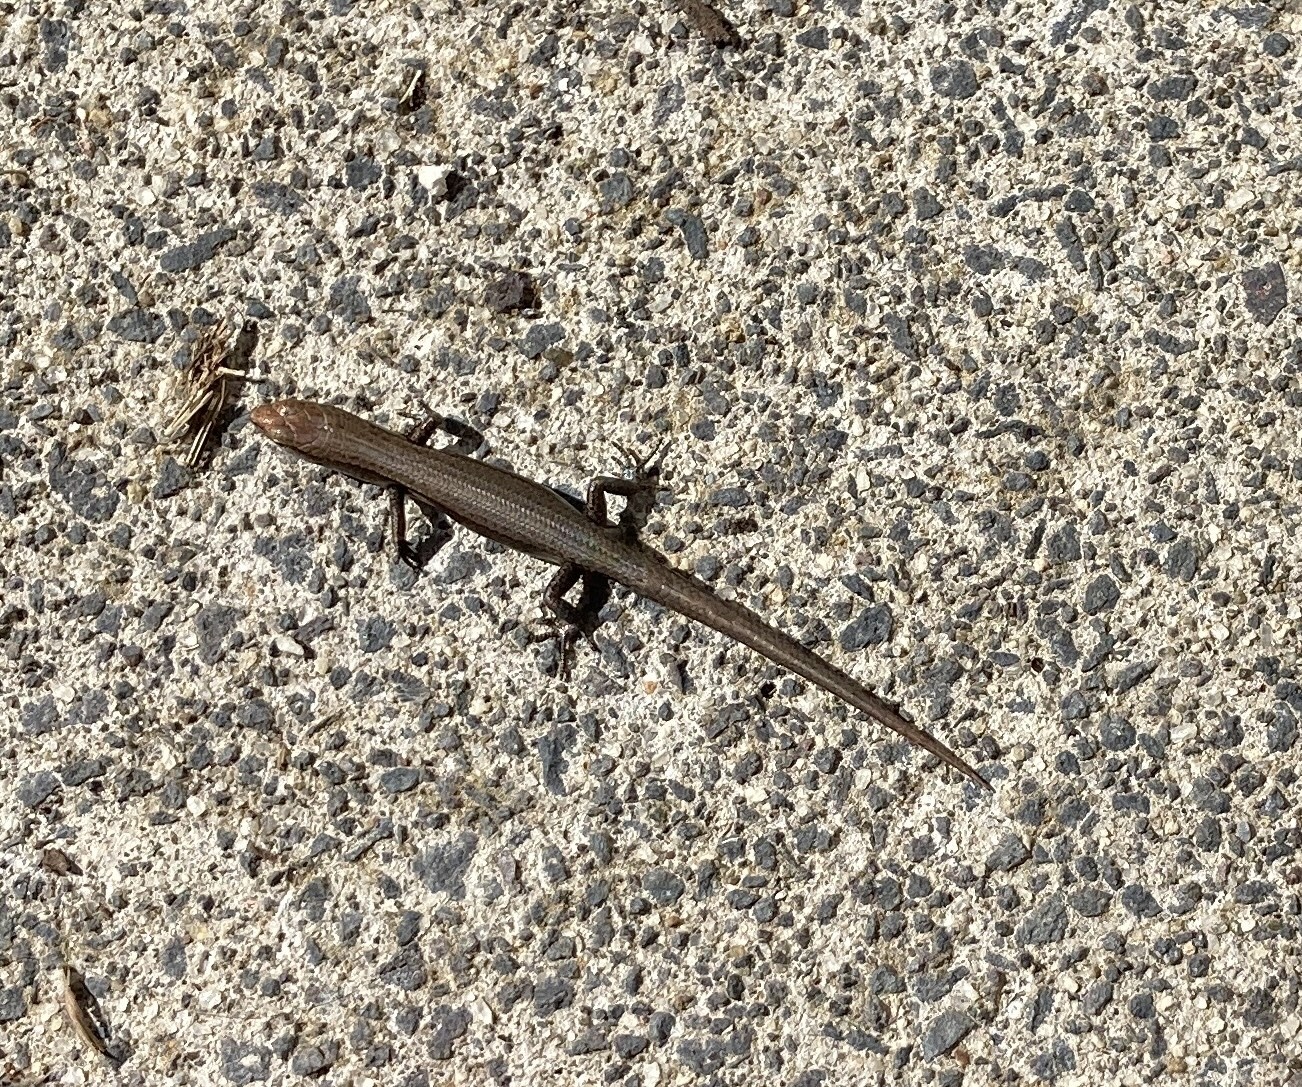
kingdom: Animalia
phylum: Chordata
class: Squamata
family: Scincidae
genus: Lampropholis
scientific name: Lampropholis delicata
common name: Plague skink
